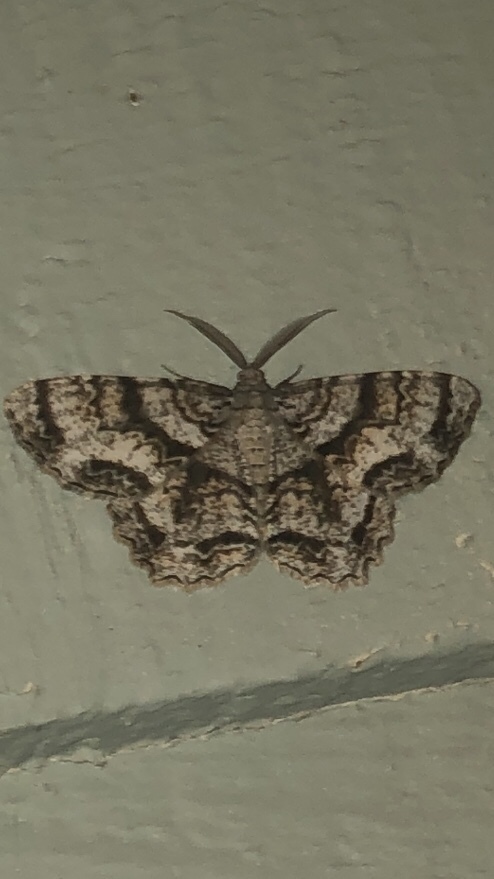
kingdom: Animalia
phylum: Arthropoda
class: Insecta
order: Lepidoptera
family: Geometridae
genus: Epimecis
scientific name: Epimecis hortaria
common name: Tulip-tree beauty
